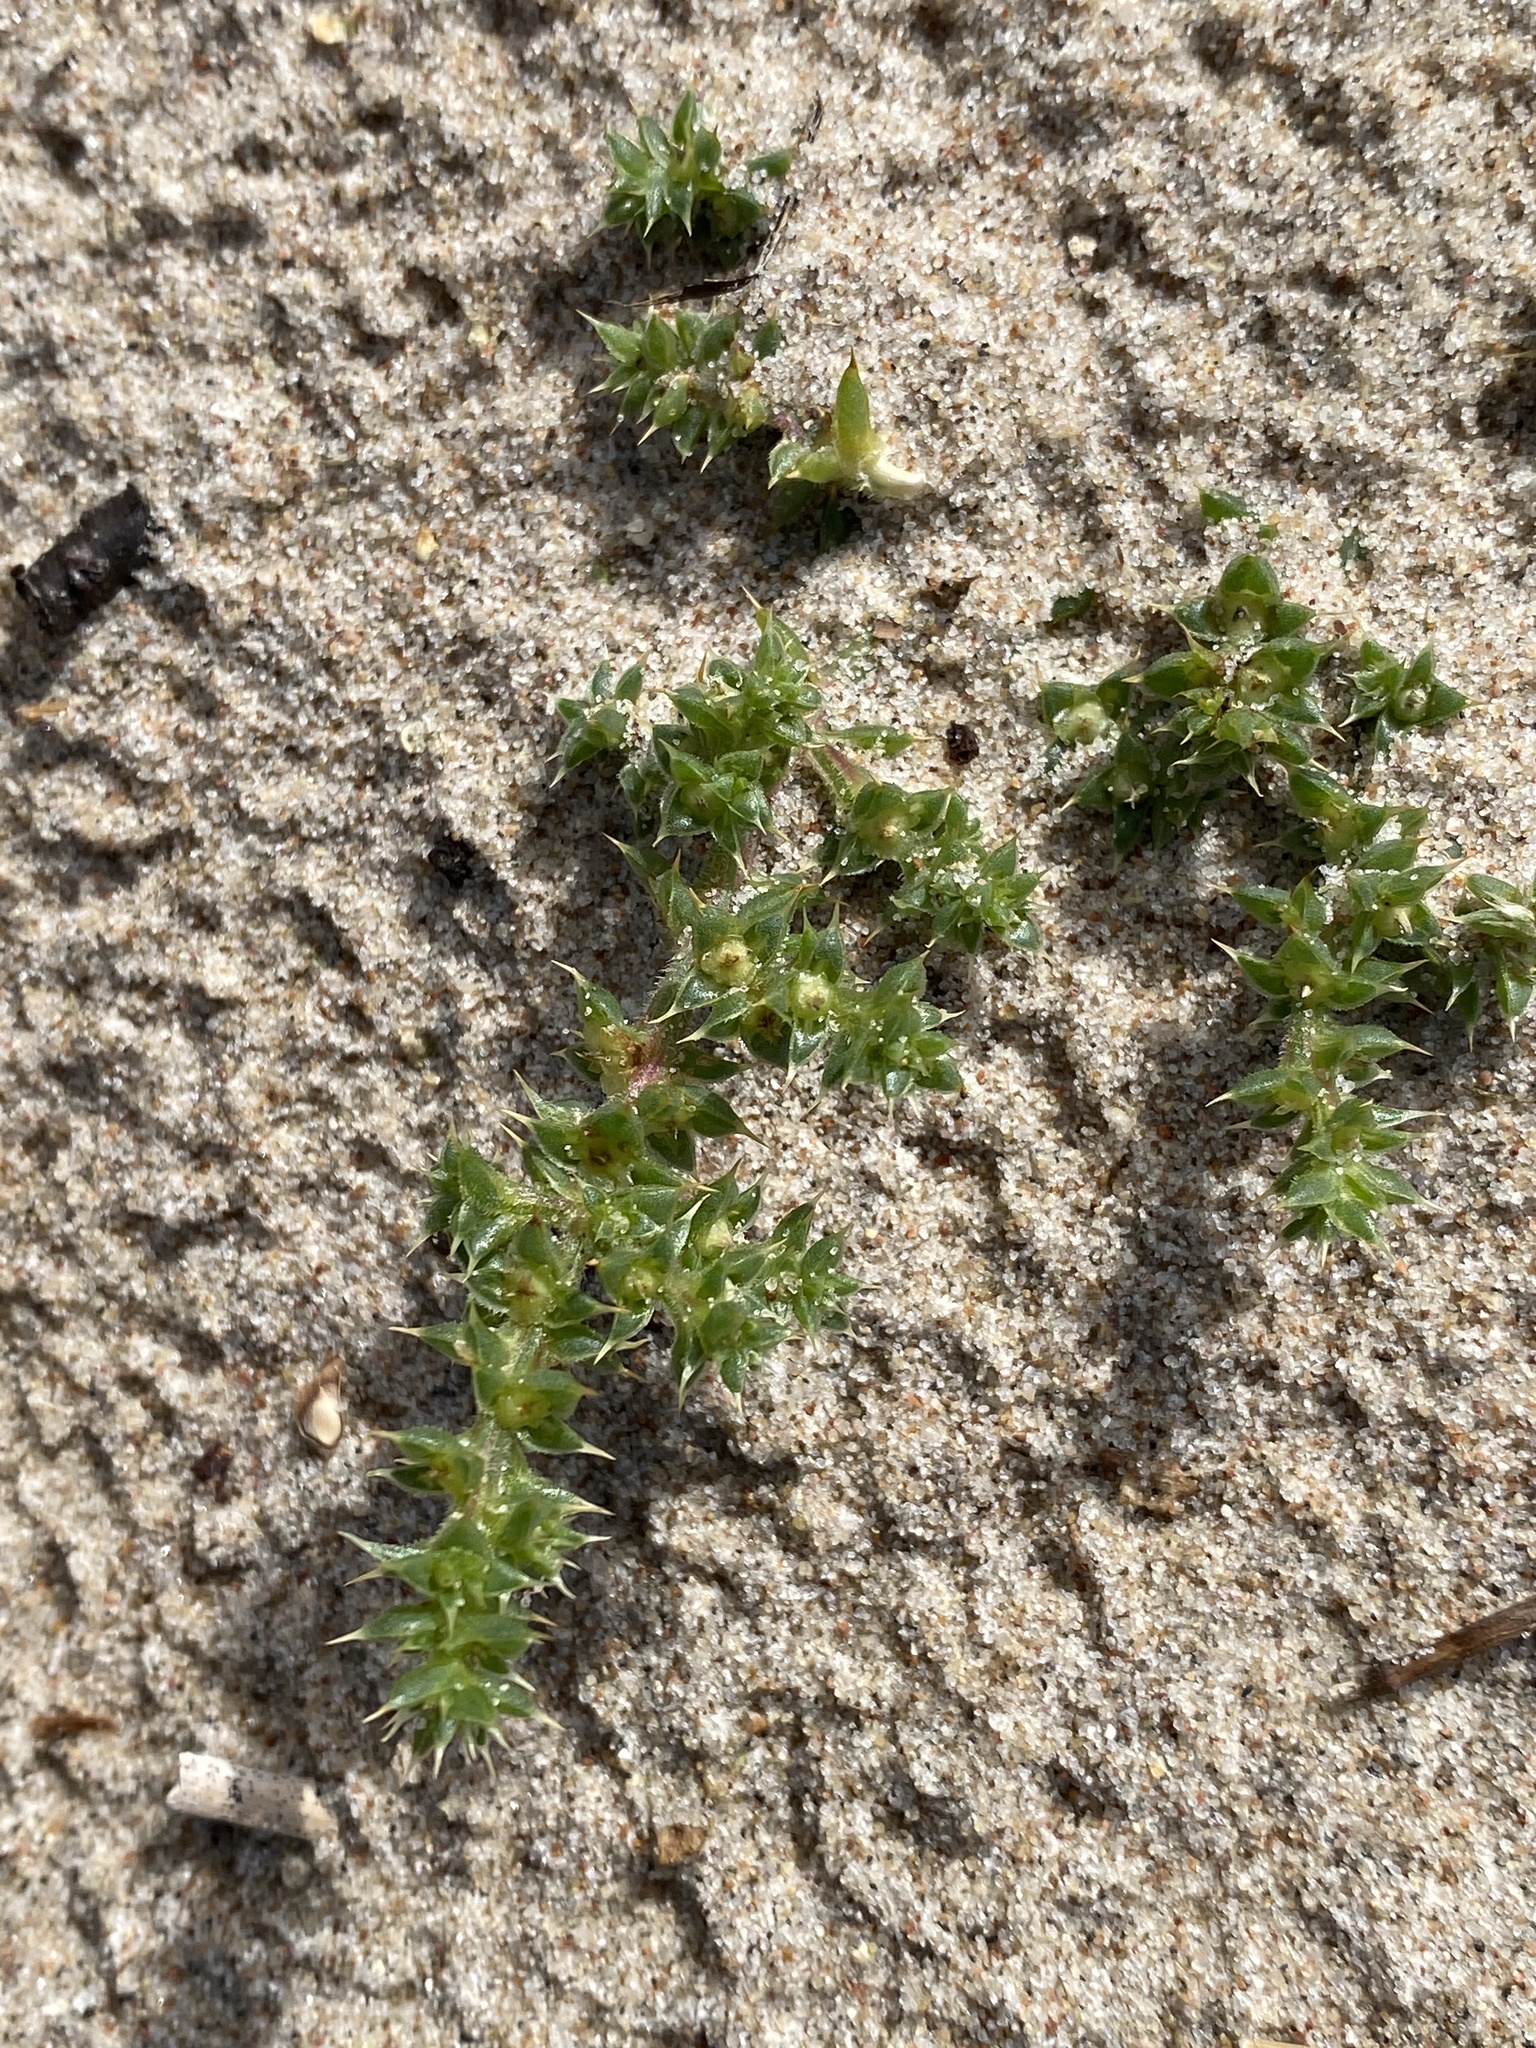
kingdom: Plantae
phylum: Tracheophyta
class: Magnoliopsida
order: Caryophyllales
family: Amaranthaceae
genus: Salsola
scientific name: Salsola kali
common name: Saltwort
